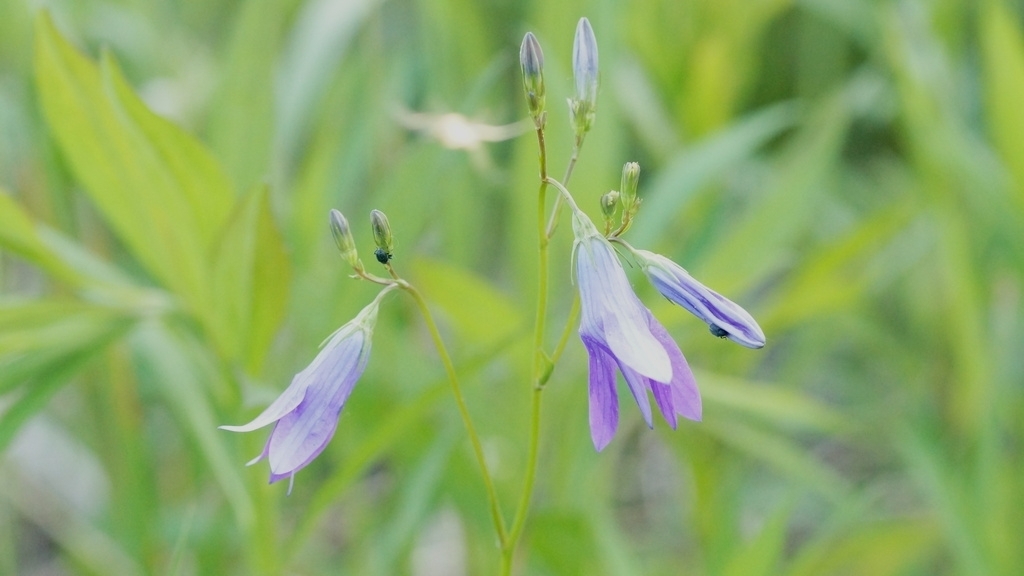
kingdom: Plantae
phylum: Tracheophyta
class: Magnoliopsida
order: Asterales
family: Campanulaceae
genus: Campanula
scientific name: Campanula patula
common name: Spreading bellflower
